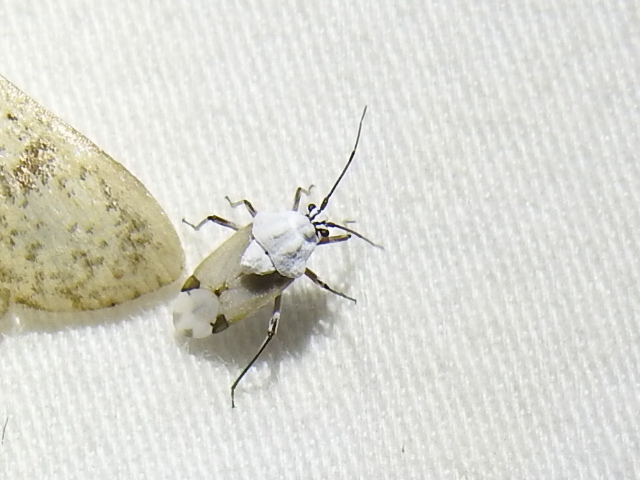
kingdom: Animalia
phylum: Arthropoda
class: Insecta
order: Hemiptera
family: Miridae
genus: Clivinema
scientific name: Clivinema
